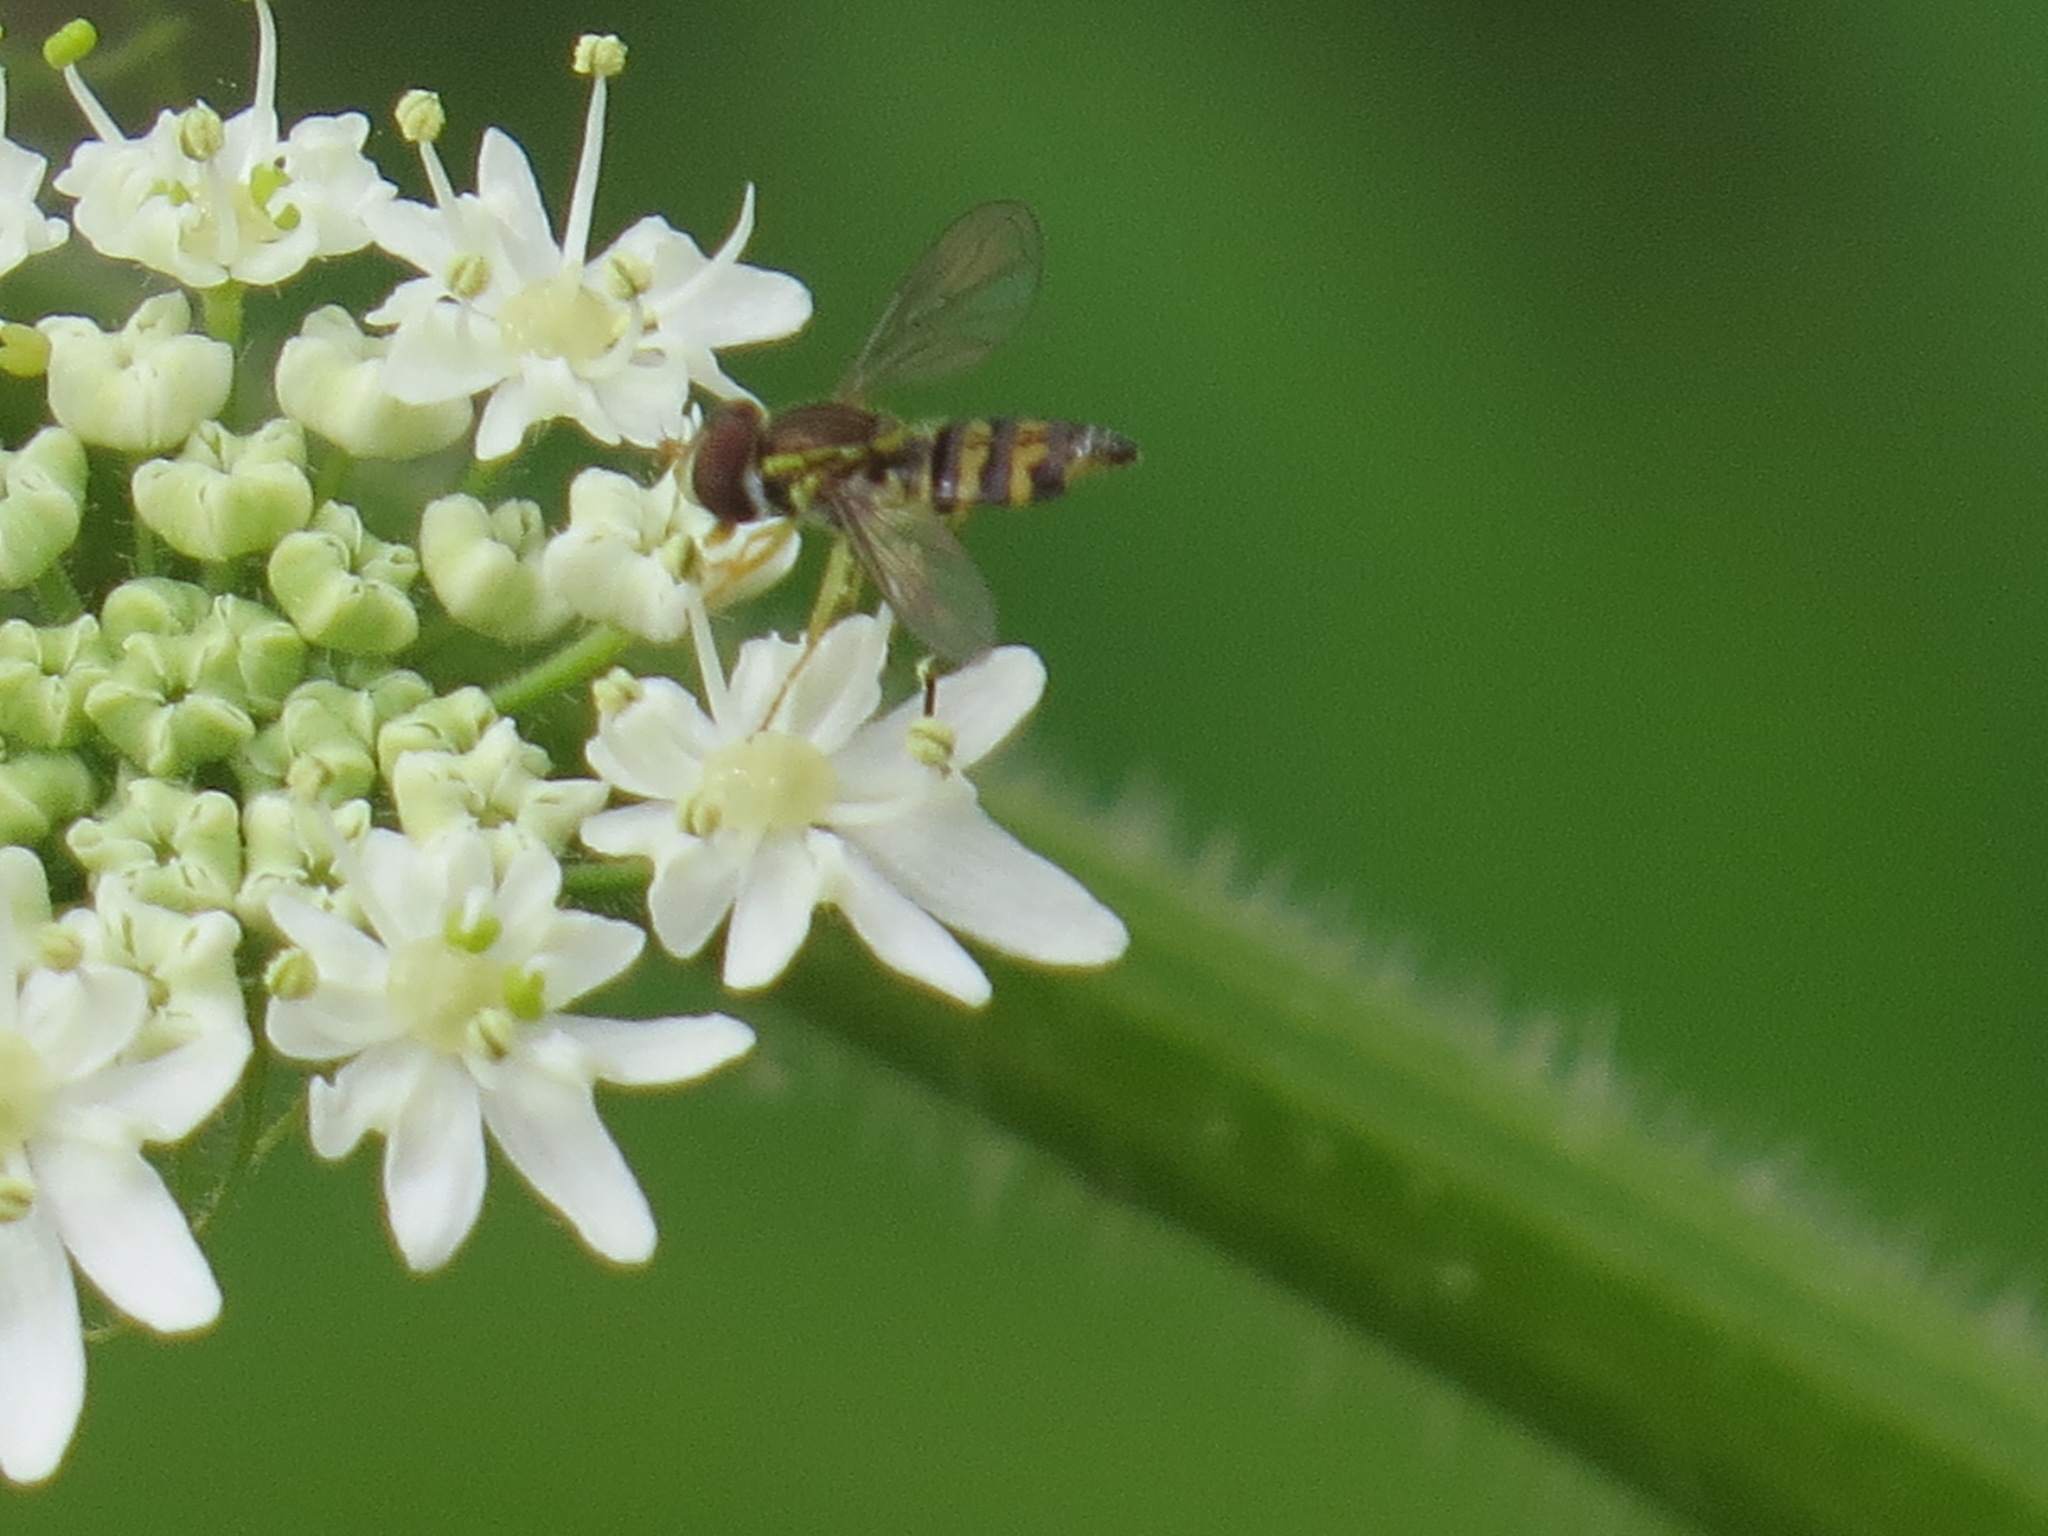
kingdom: Animalia
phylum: Arthropoda
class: Insecta
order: Diptera
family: Syrphidae
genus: Toxomerus
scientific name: Toxomerus occidentalis
